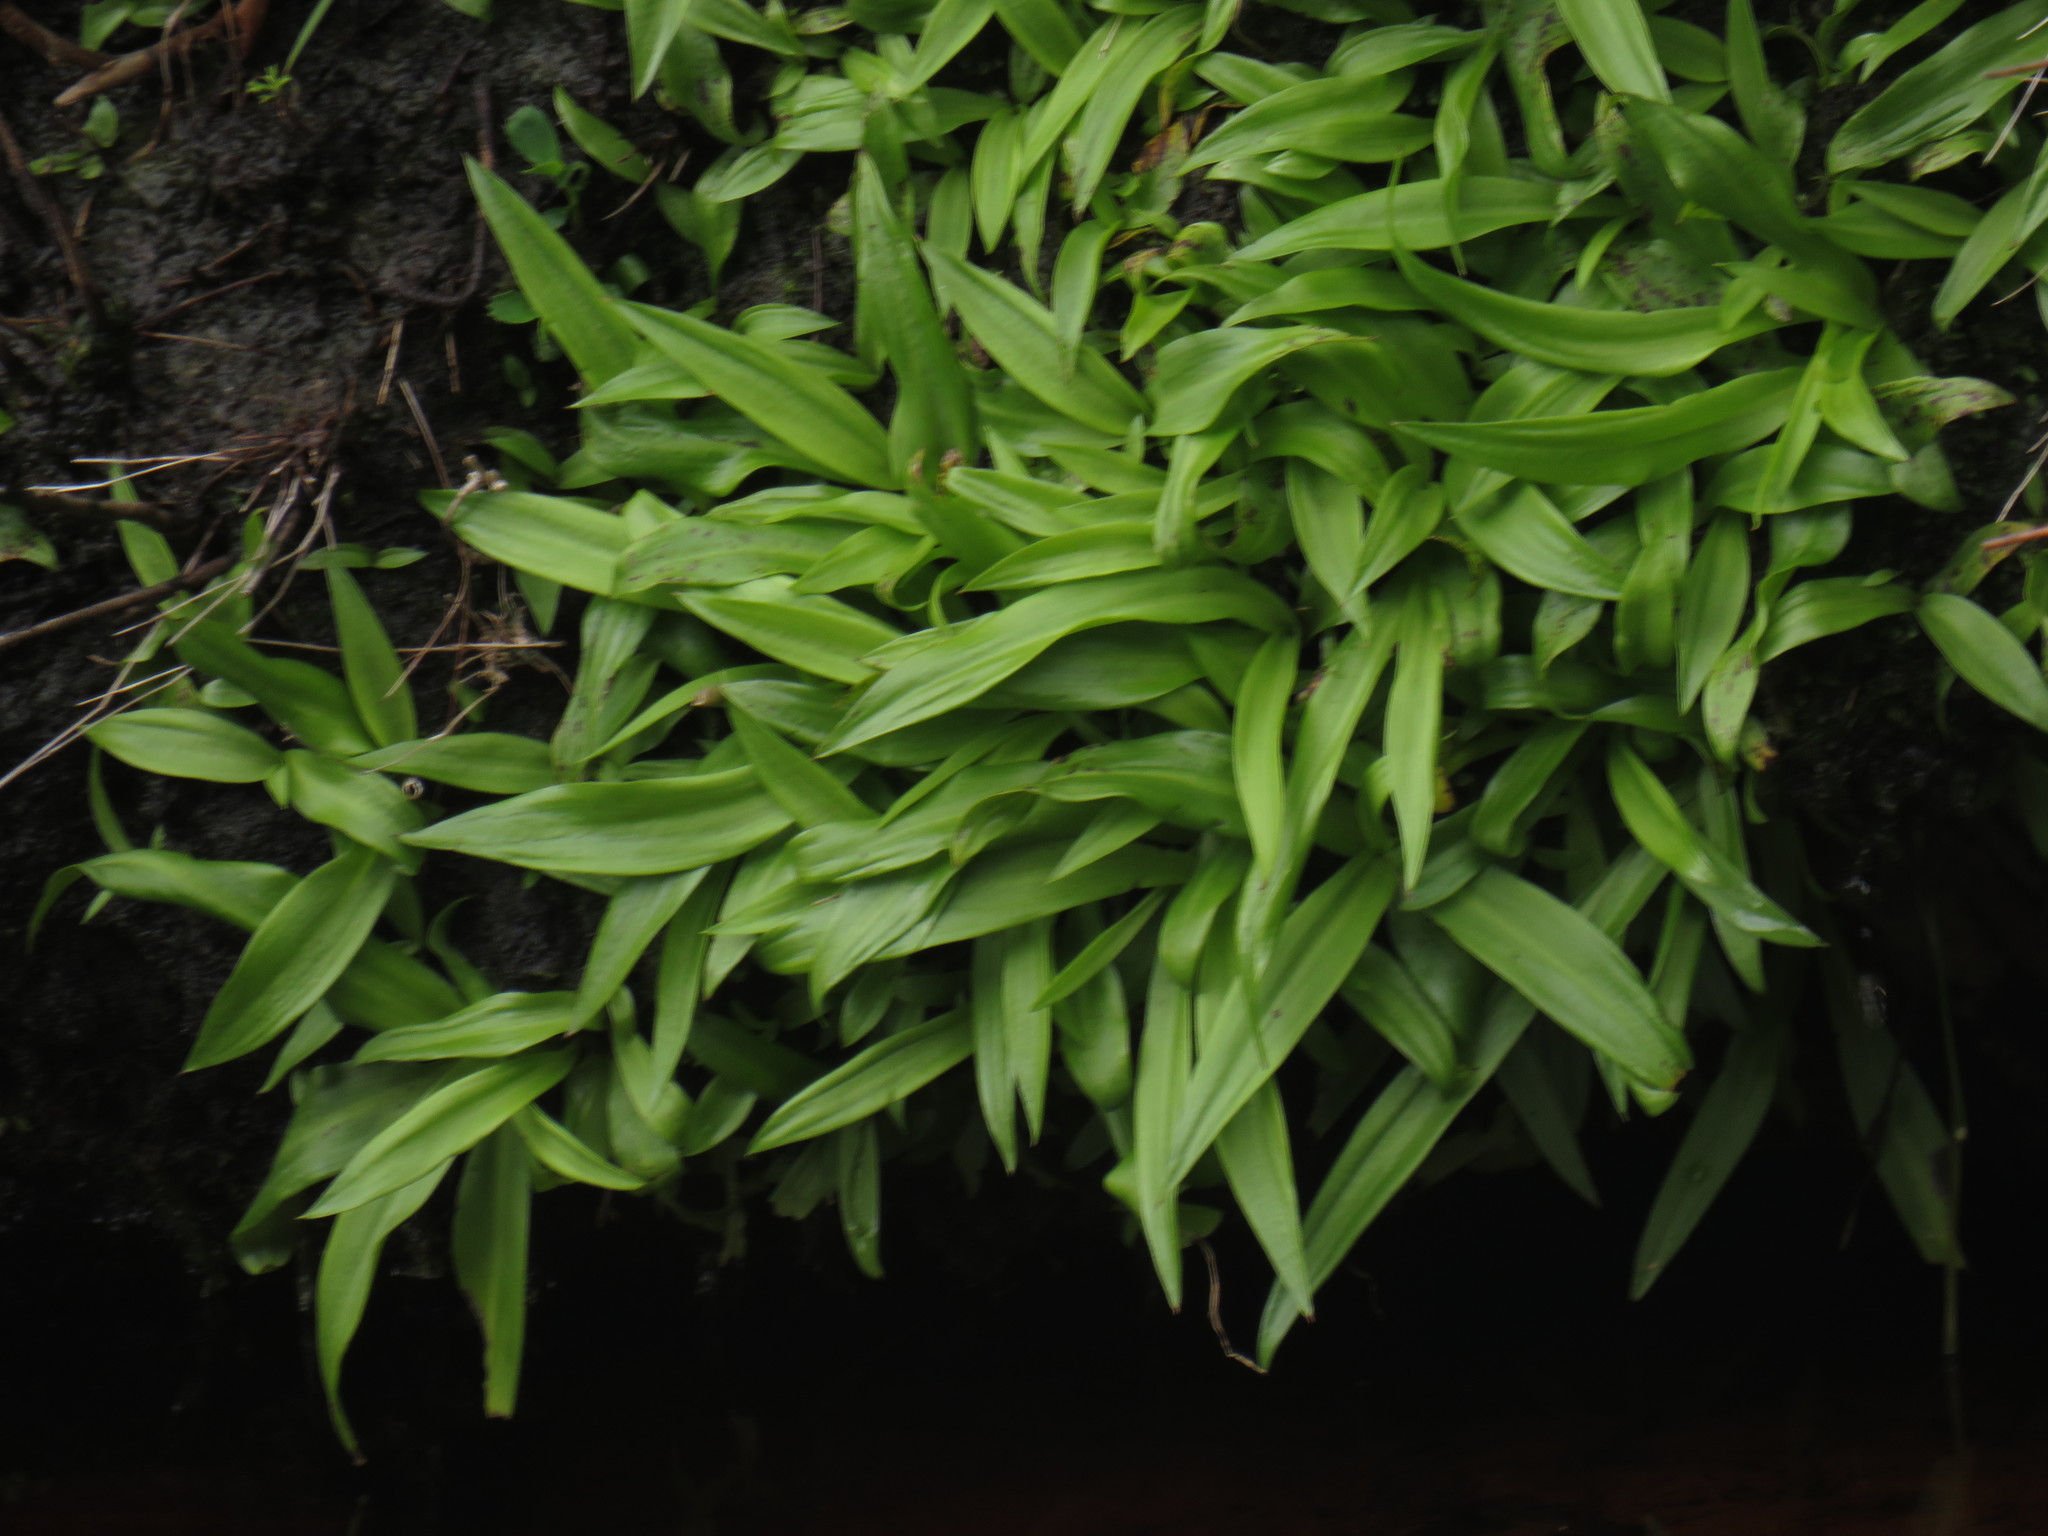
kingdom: Plantae
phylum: Tracheophyta
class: Liliopsida
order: Asparagales
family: Orchidaceae
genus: Disa
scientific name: Disa uniflora
